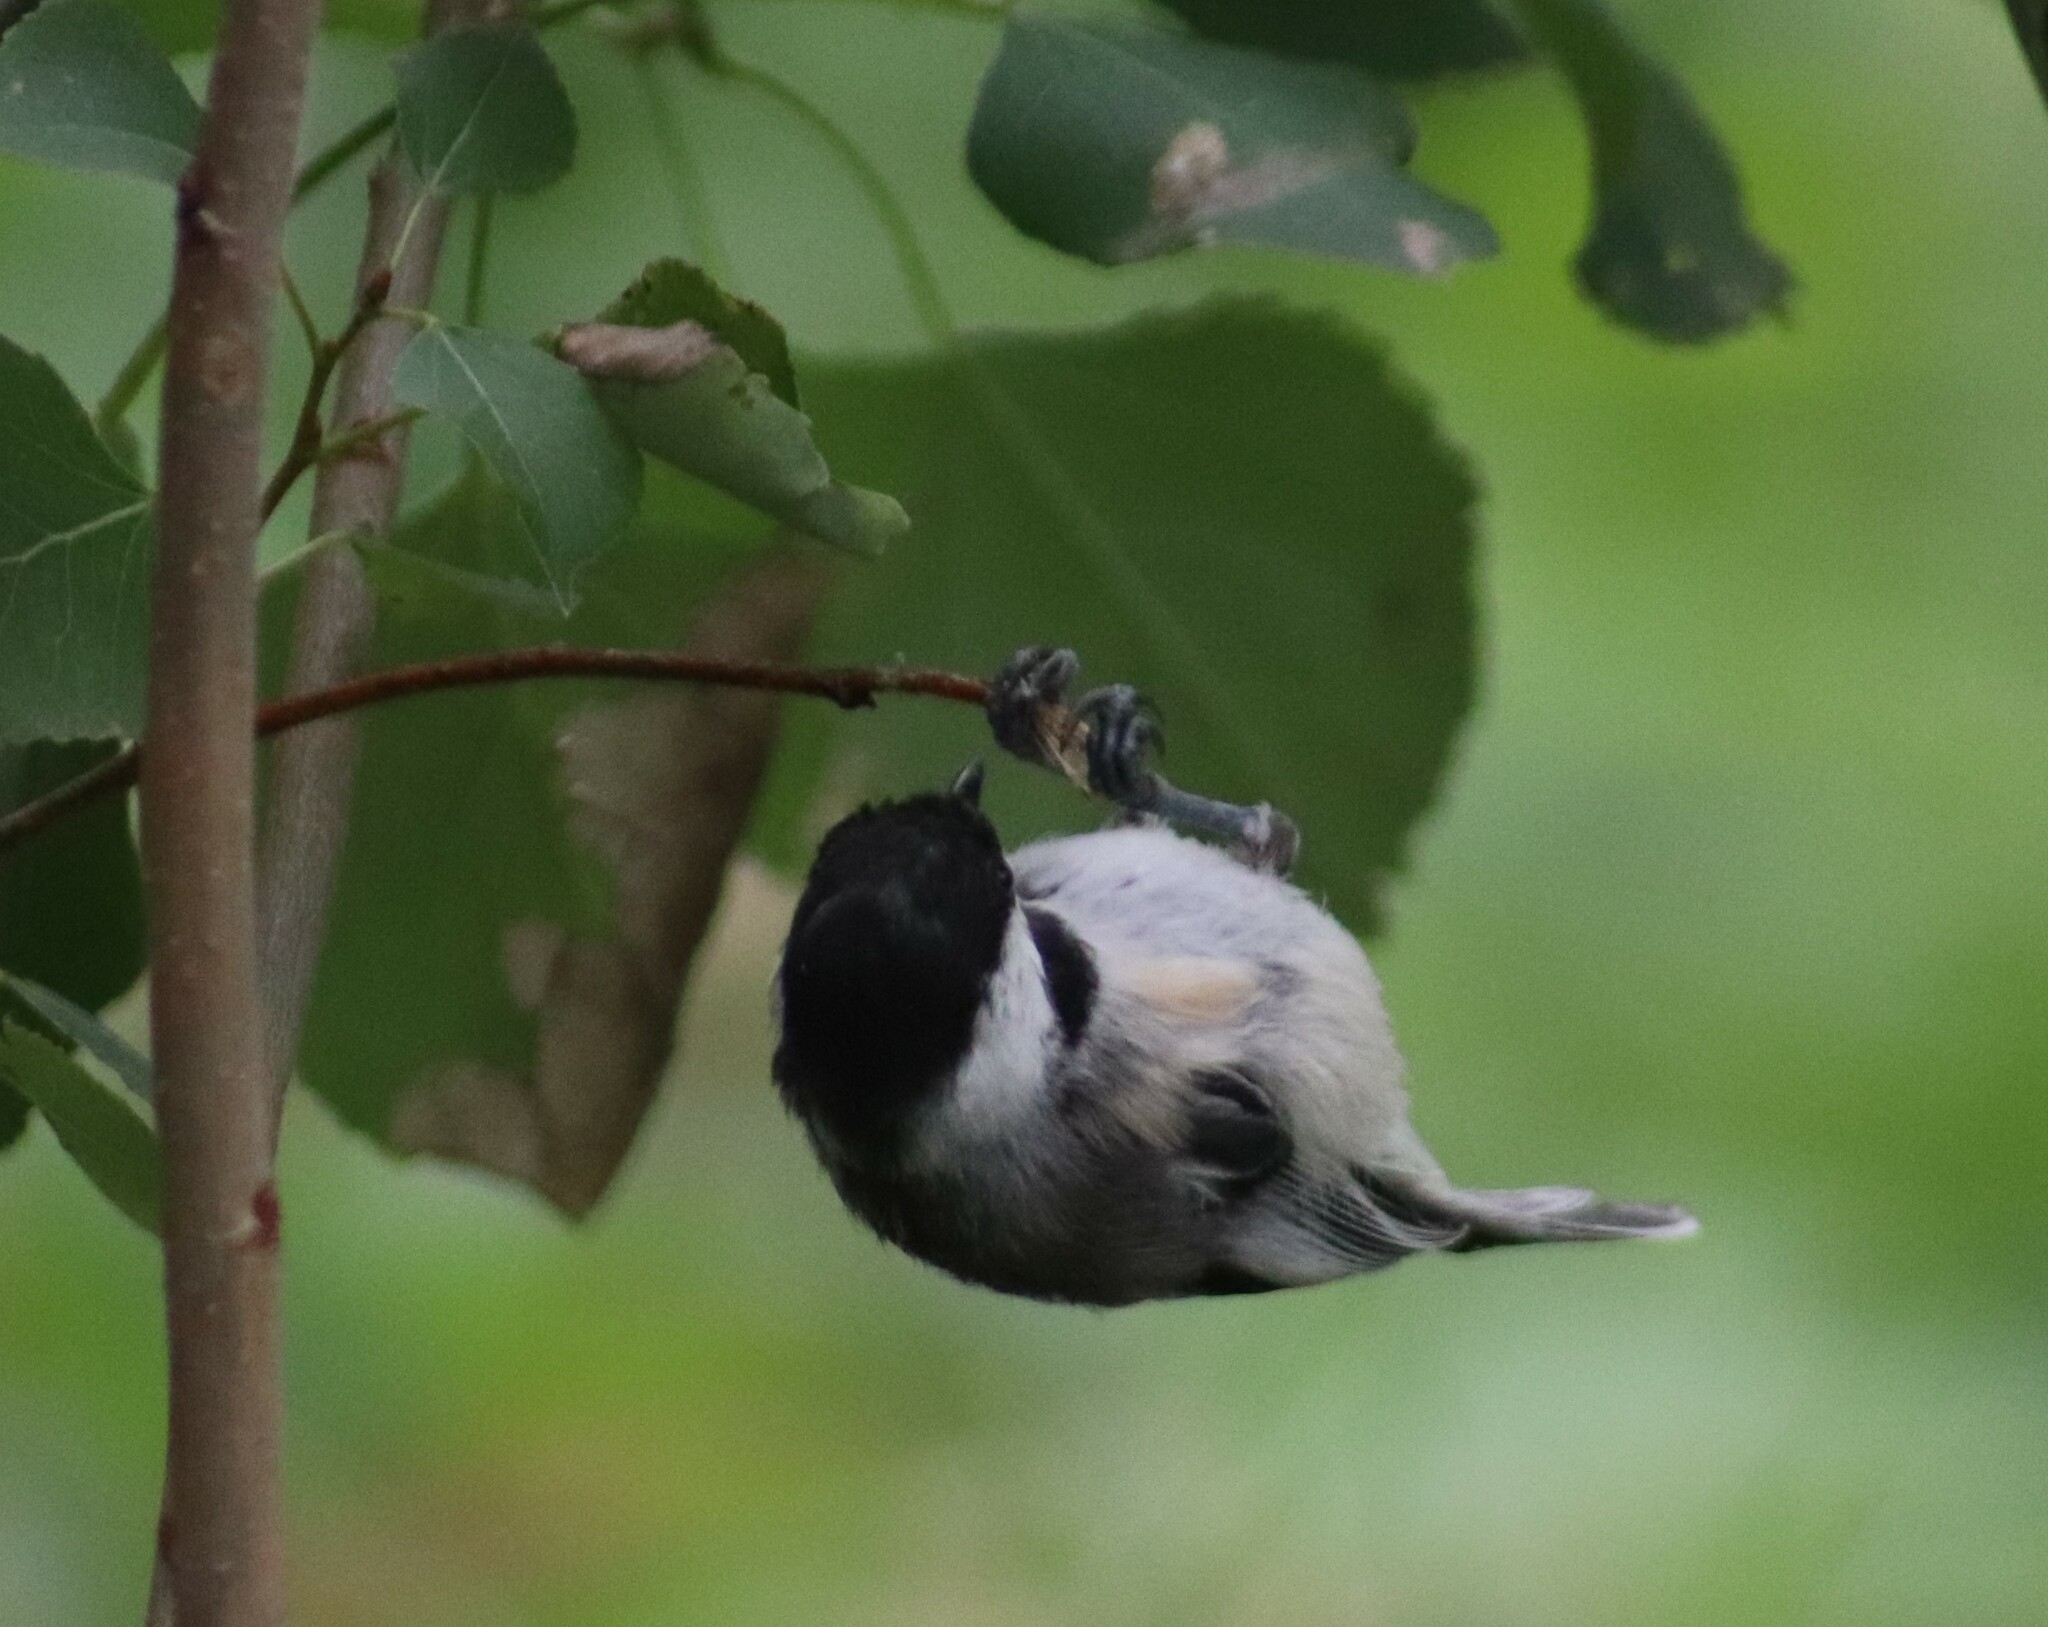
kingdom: Animalia
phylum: Chordata
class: Aves
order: Passeriformes
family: Paridae
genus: Poecile
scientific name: Poecile atricapillus
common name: Black-capped chickadee
